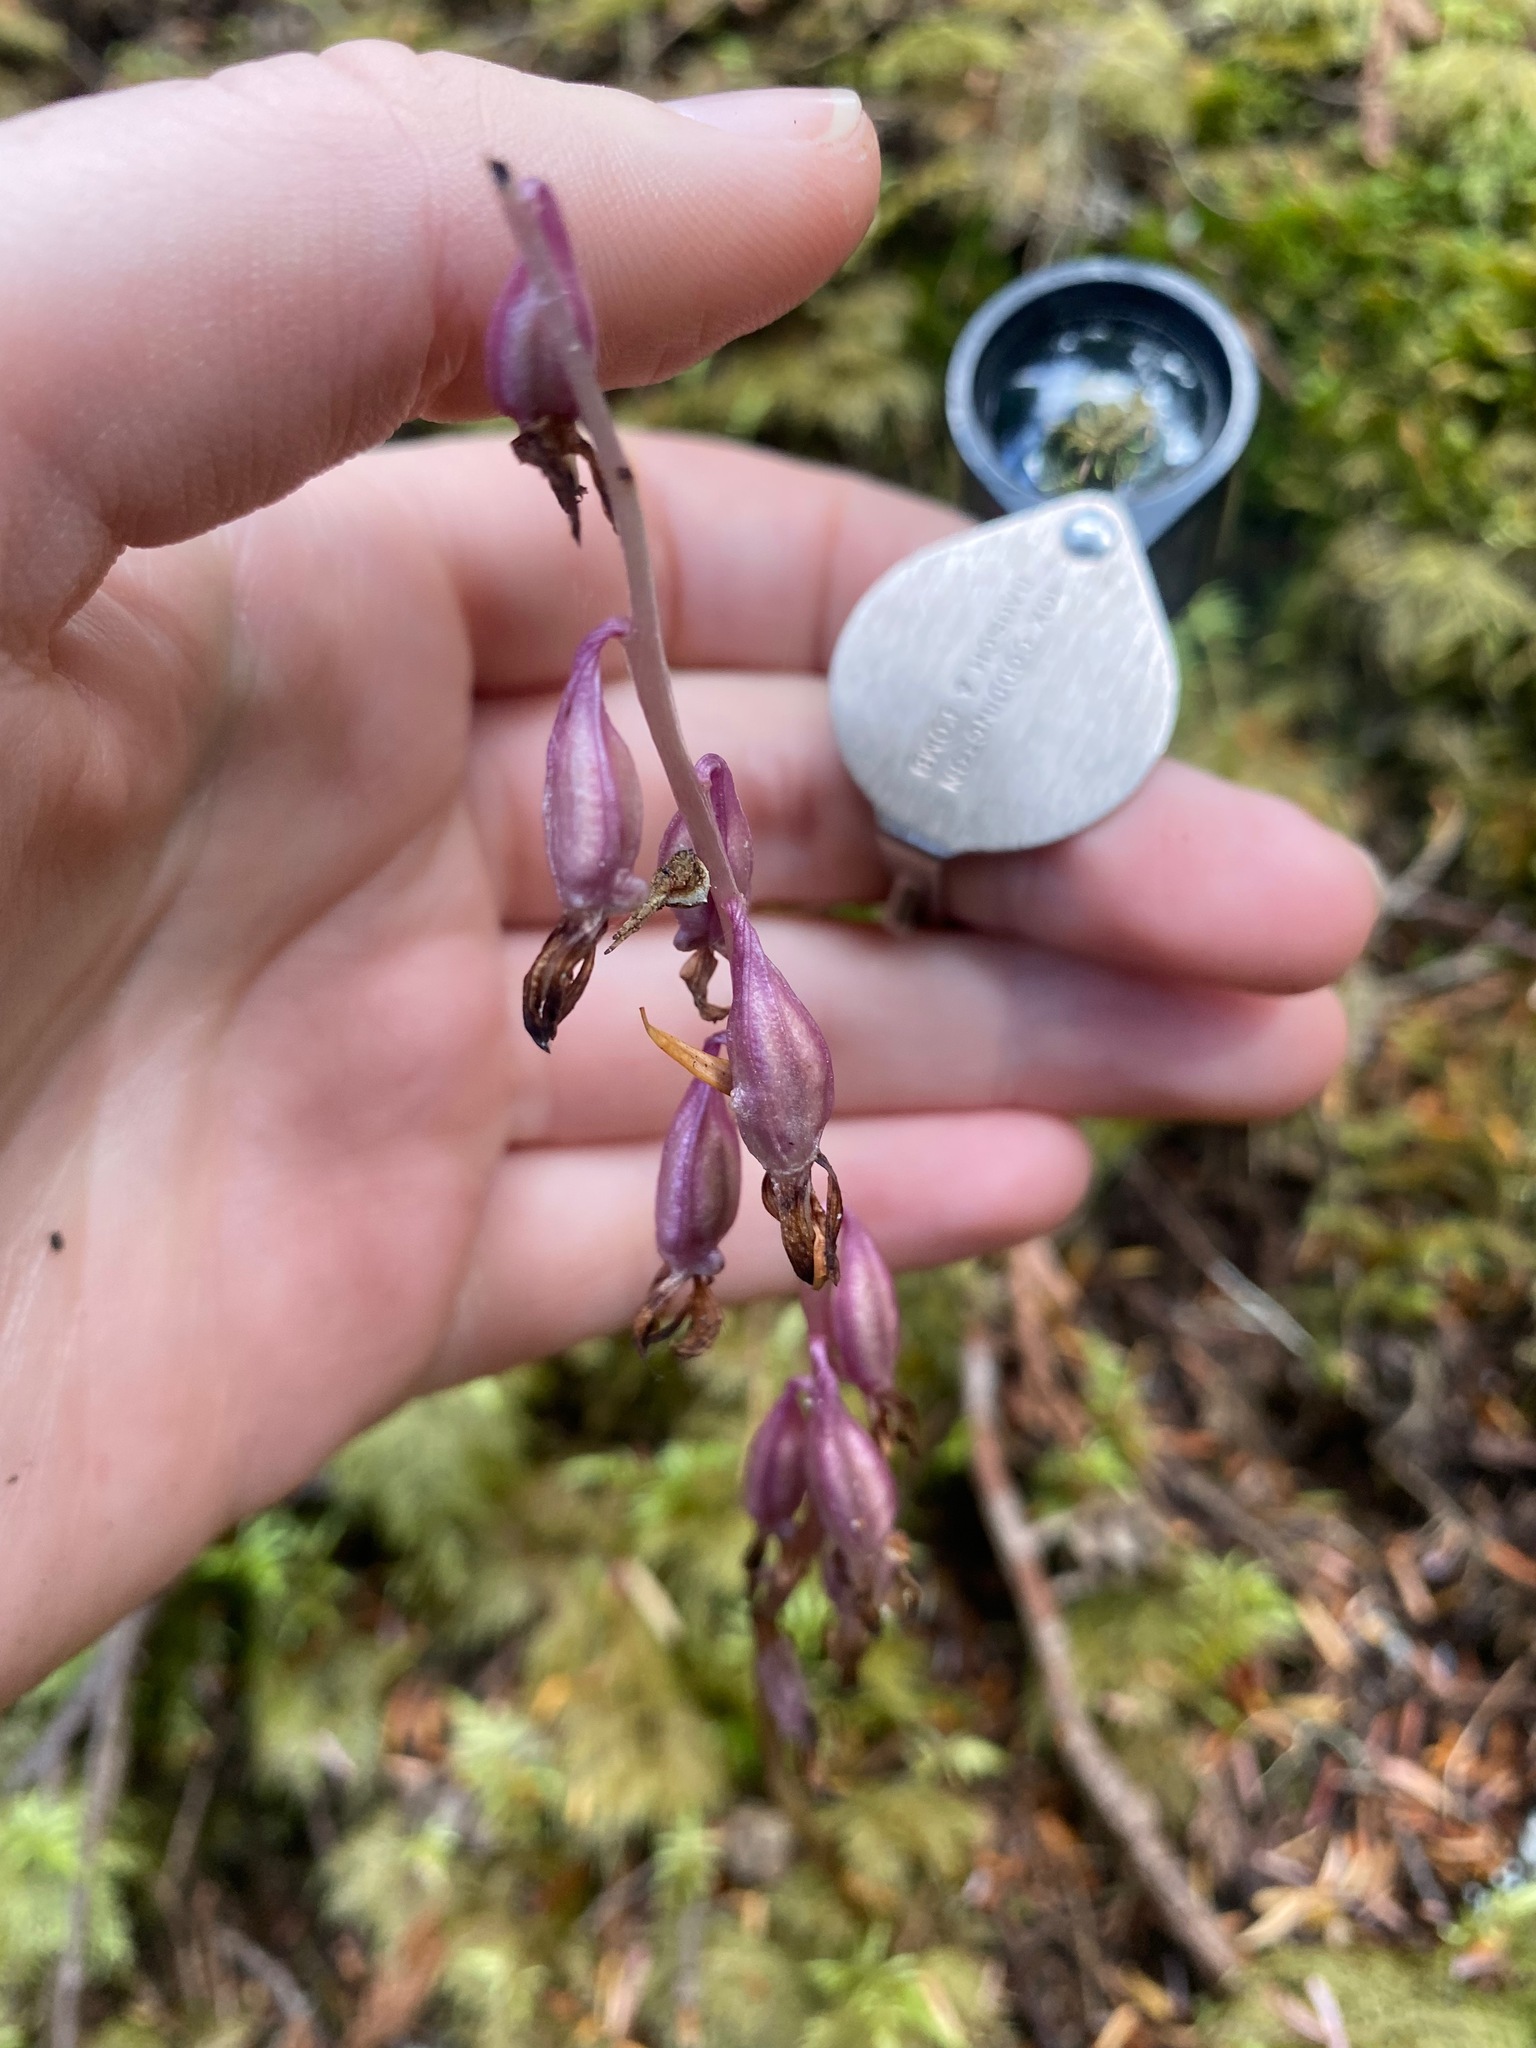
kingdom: Plantae
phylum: Tracheophyta
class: Liliopsida
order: Asparagales
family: Orchidaceae
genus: Corallorhiza
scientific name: Corallorhiza mertensiana
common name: Pacific coralroot
